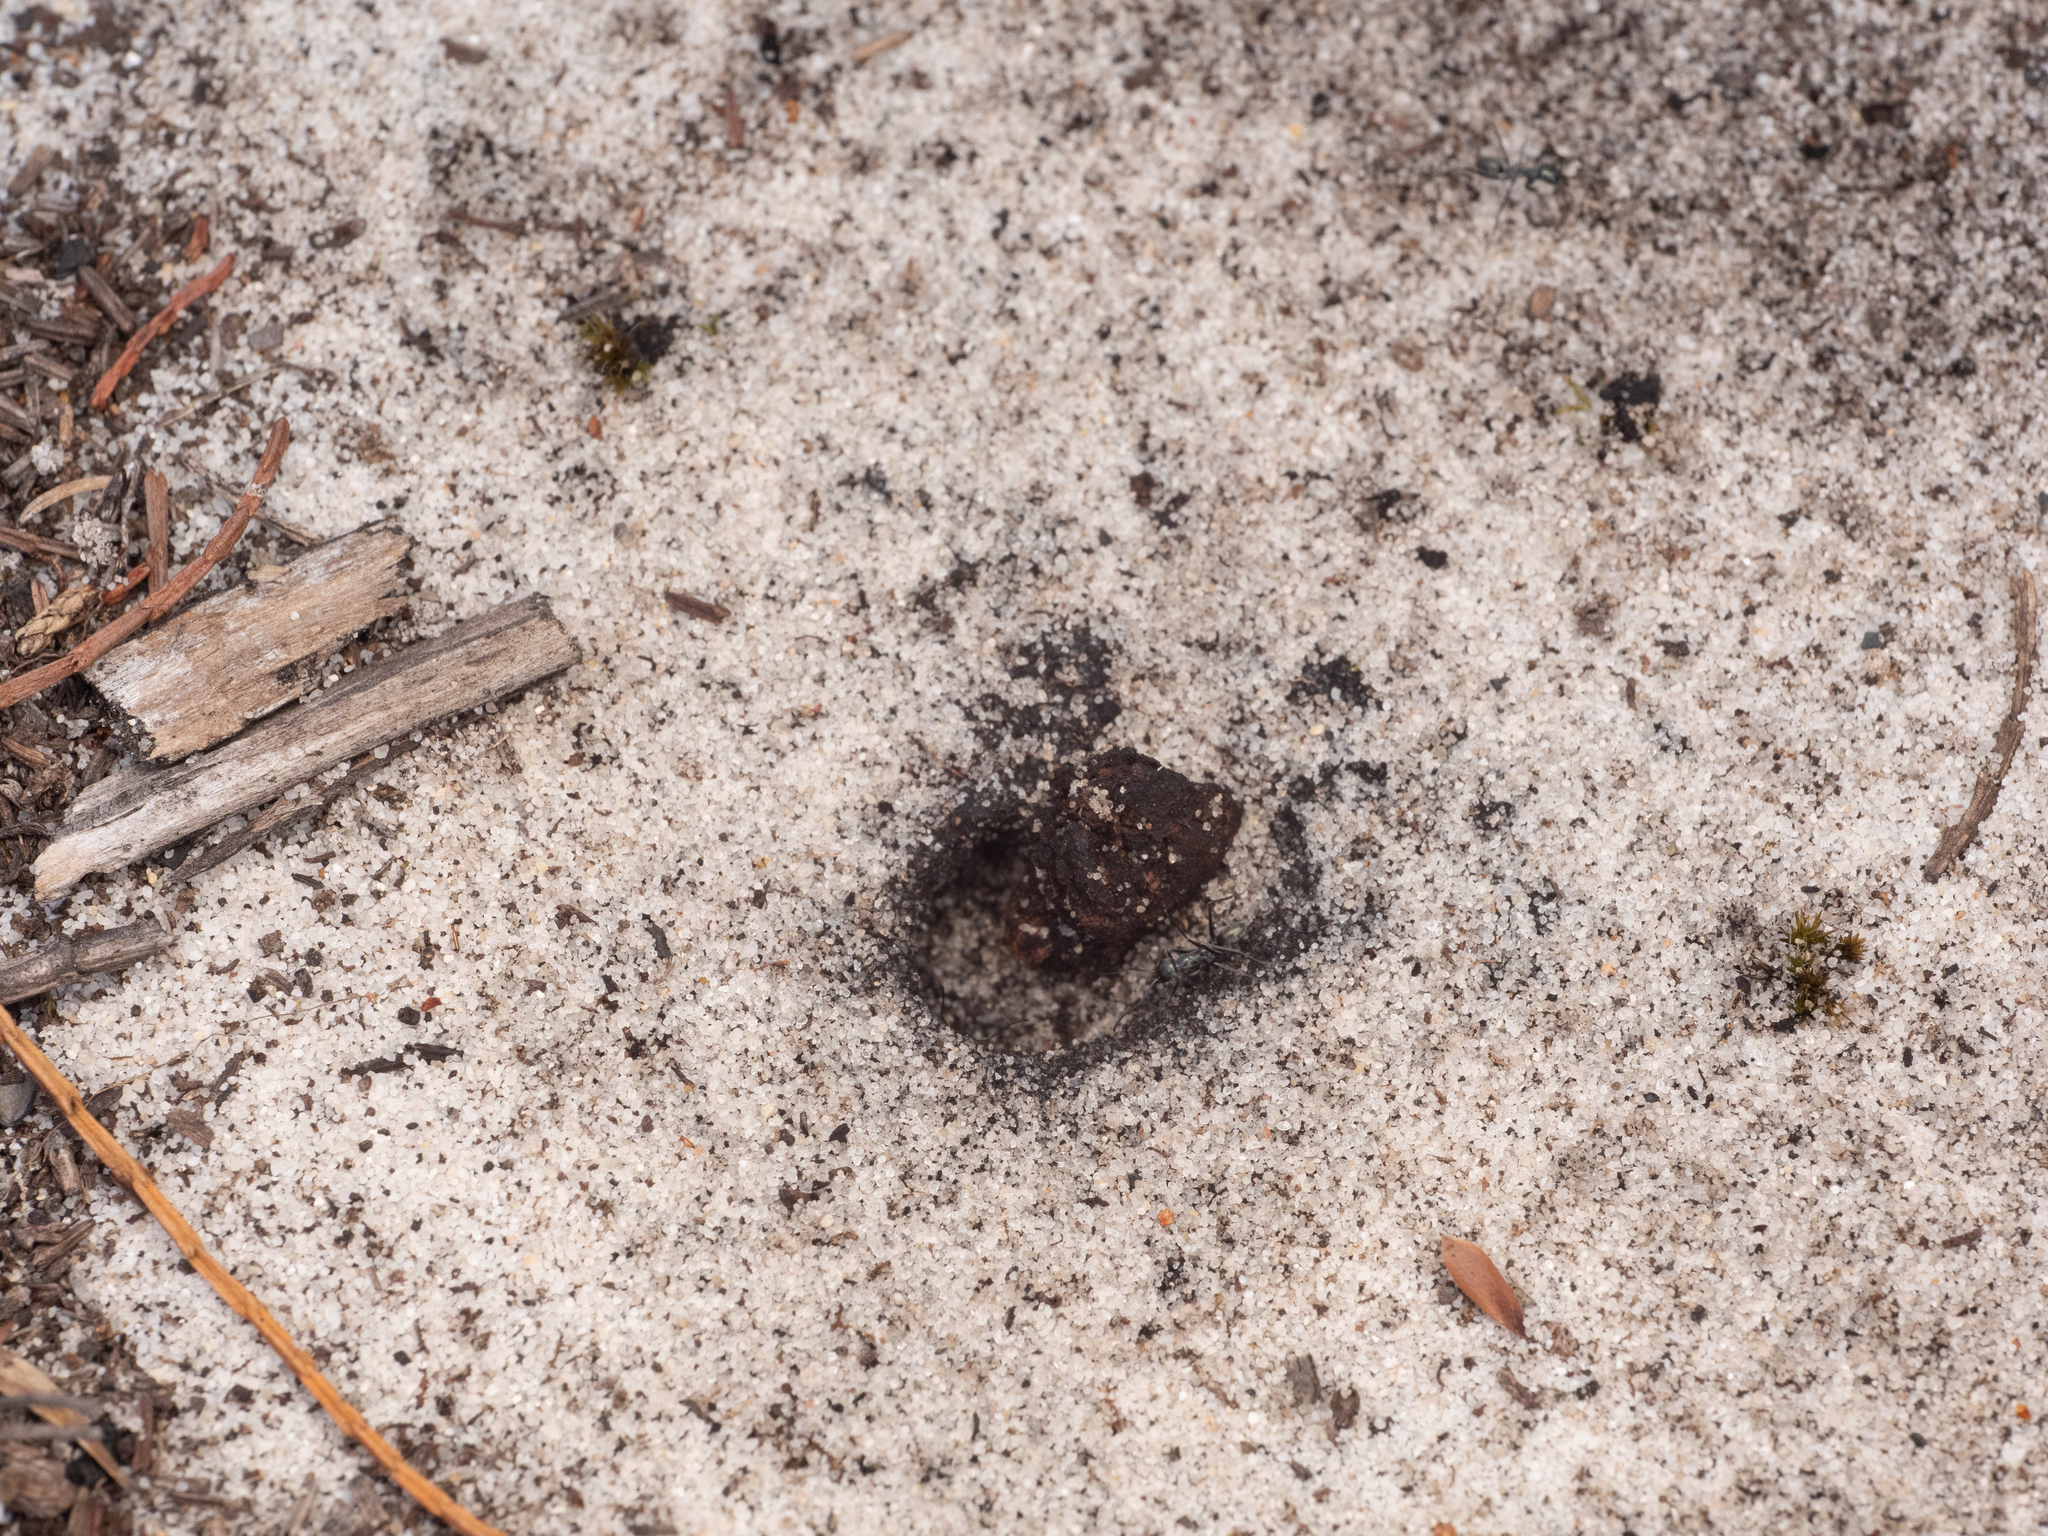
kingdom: Animalia
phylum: Arthropoda
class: Insecta
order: Hymenoptera
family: Formicidae
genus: Iridomyrmex
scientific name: Iridomyrmex bicknelli
